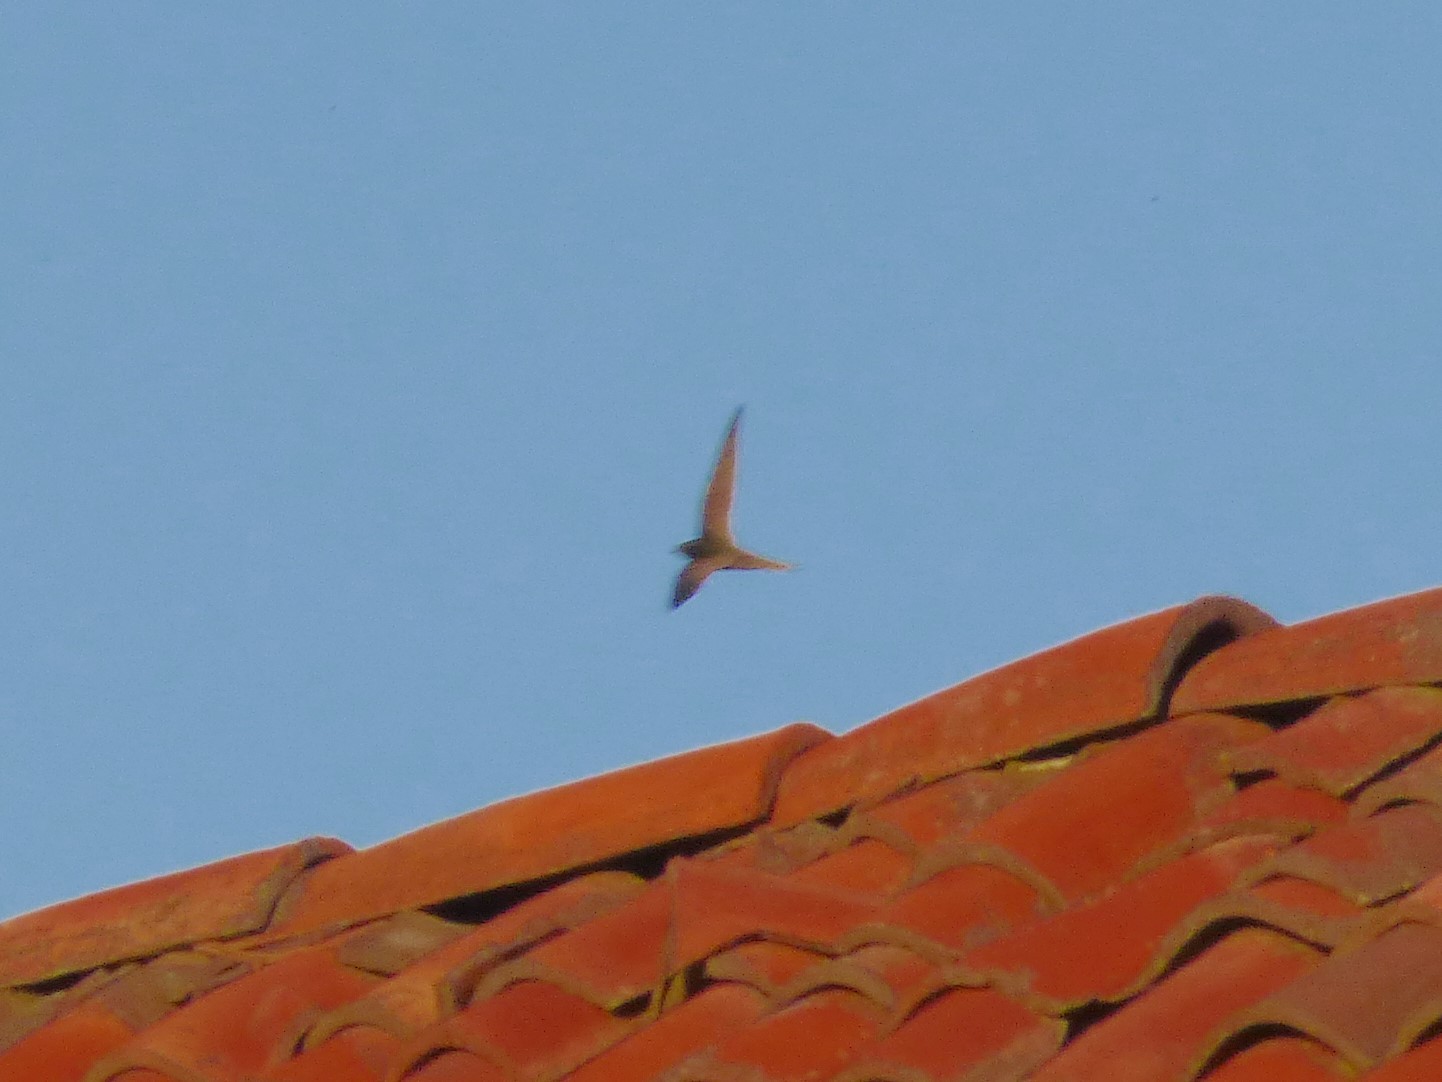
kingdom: Animalia
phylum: Chordata
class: Aves
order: Apodiformes
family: Apodidae
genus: Apus
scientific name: Apus apus
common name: Common swift
